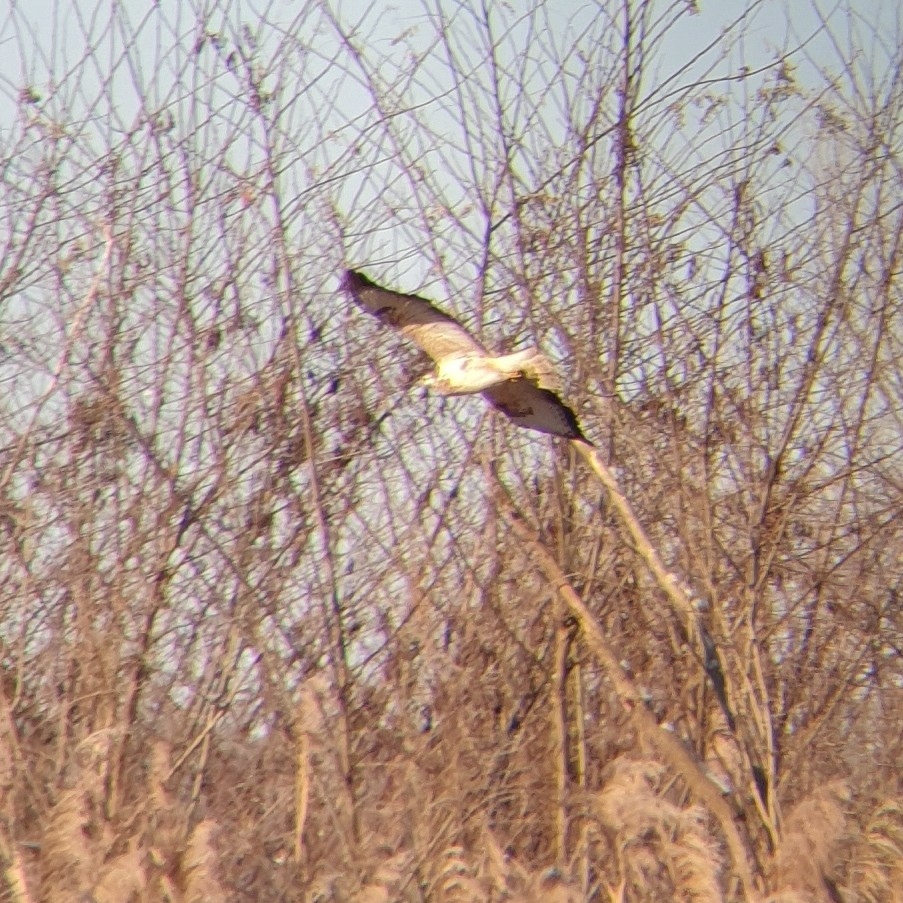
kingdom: Animalia
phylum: Chordata
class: Aves
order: Accipitriformes
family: Accipitridae
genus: Buteo
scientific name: Buteo buteo
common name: Common buzzard
